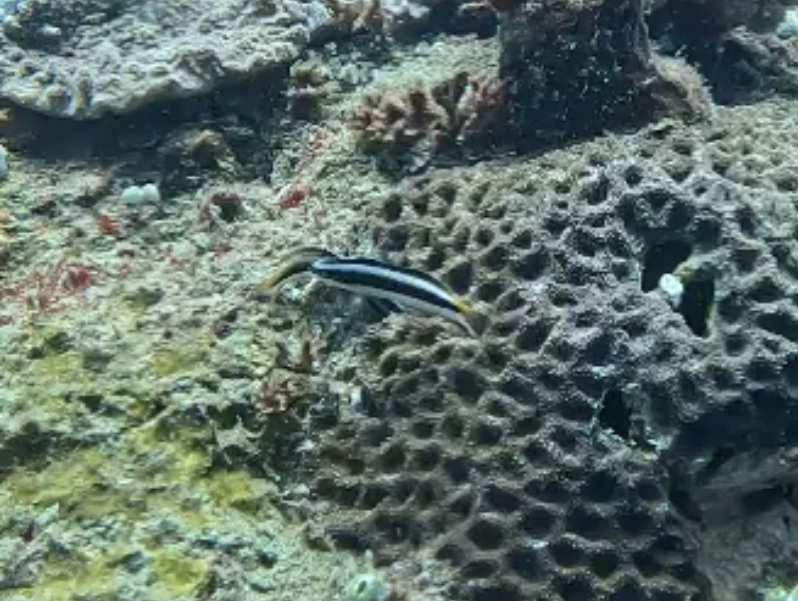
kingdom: Animalia
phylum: Chordata
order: Perciformes
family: Labridae
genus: Thalassoma
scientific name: Thalassoma amblycephalum
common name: Bluehead wrasse
